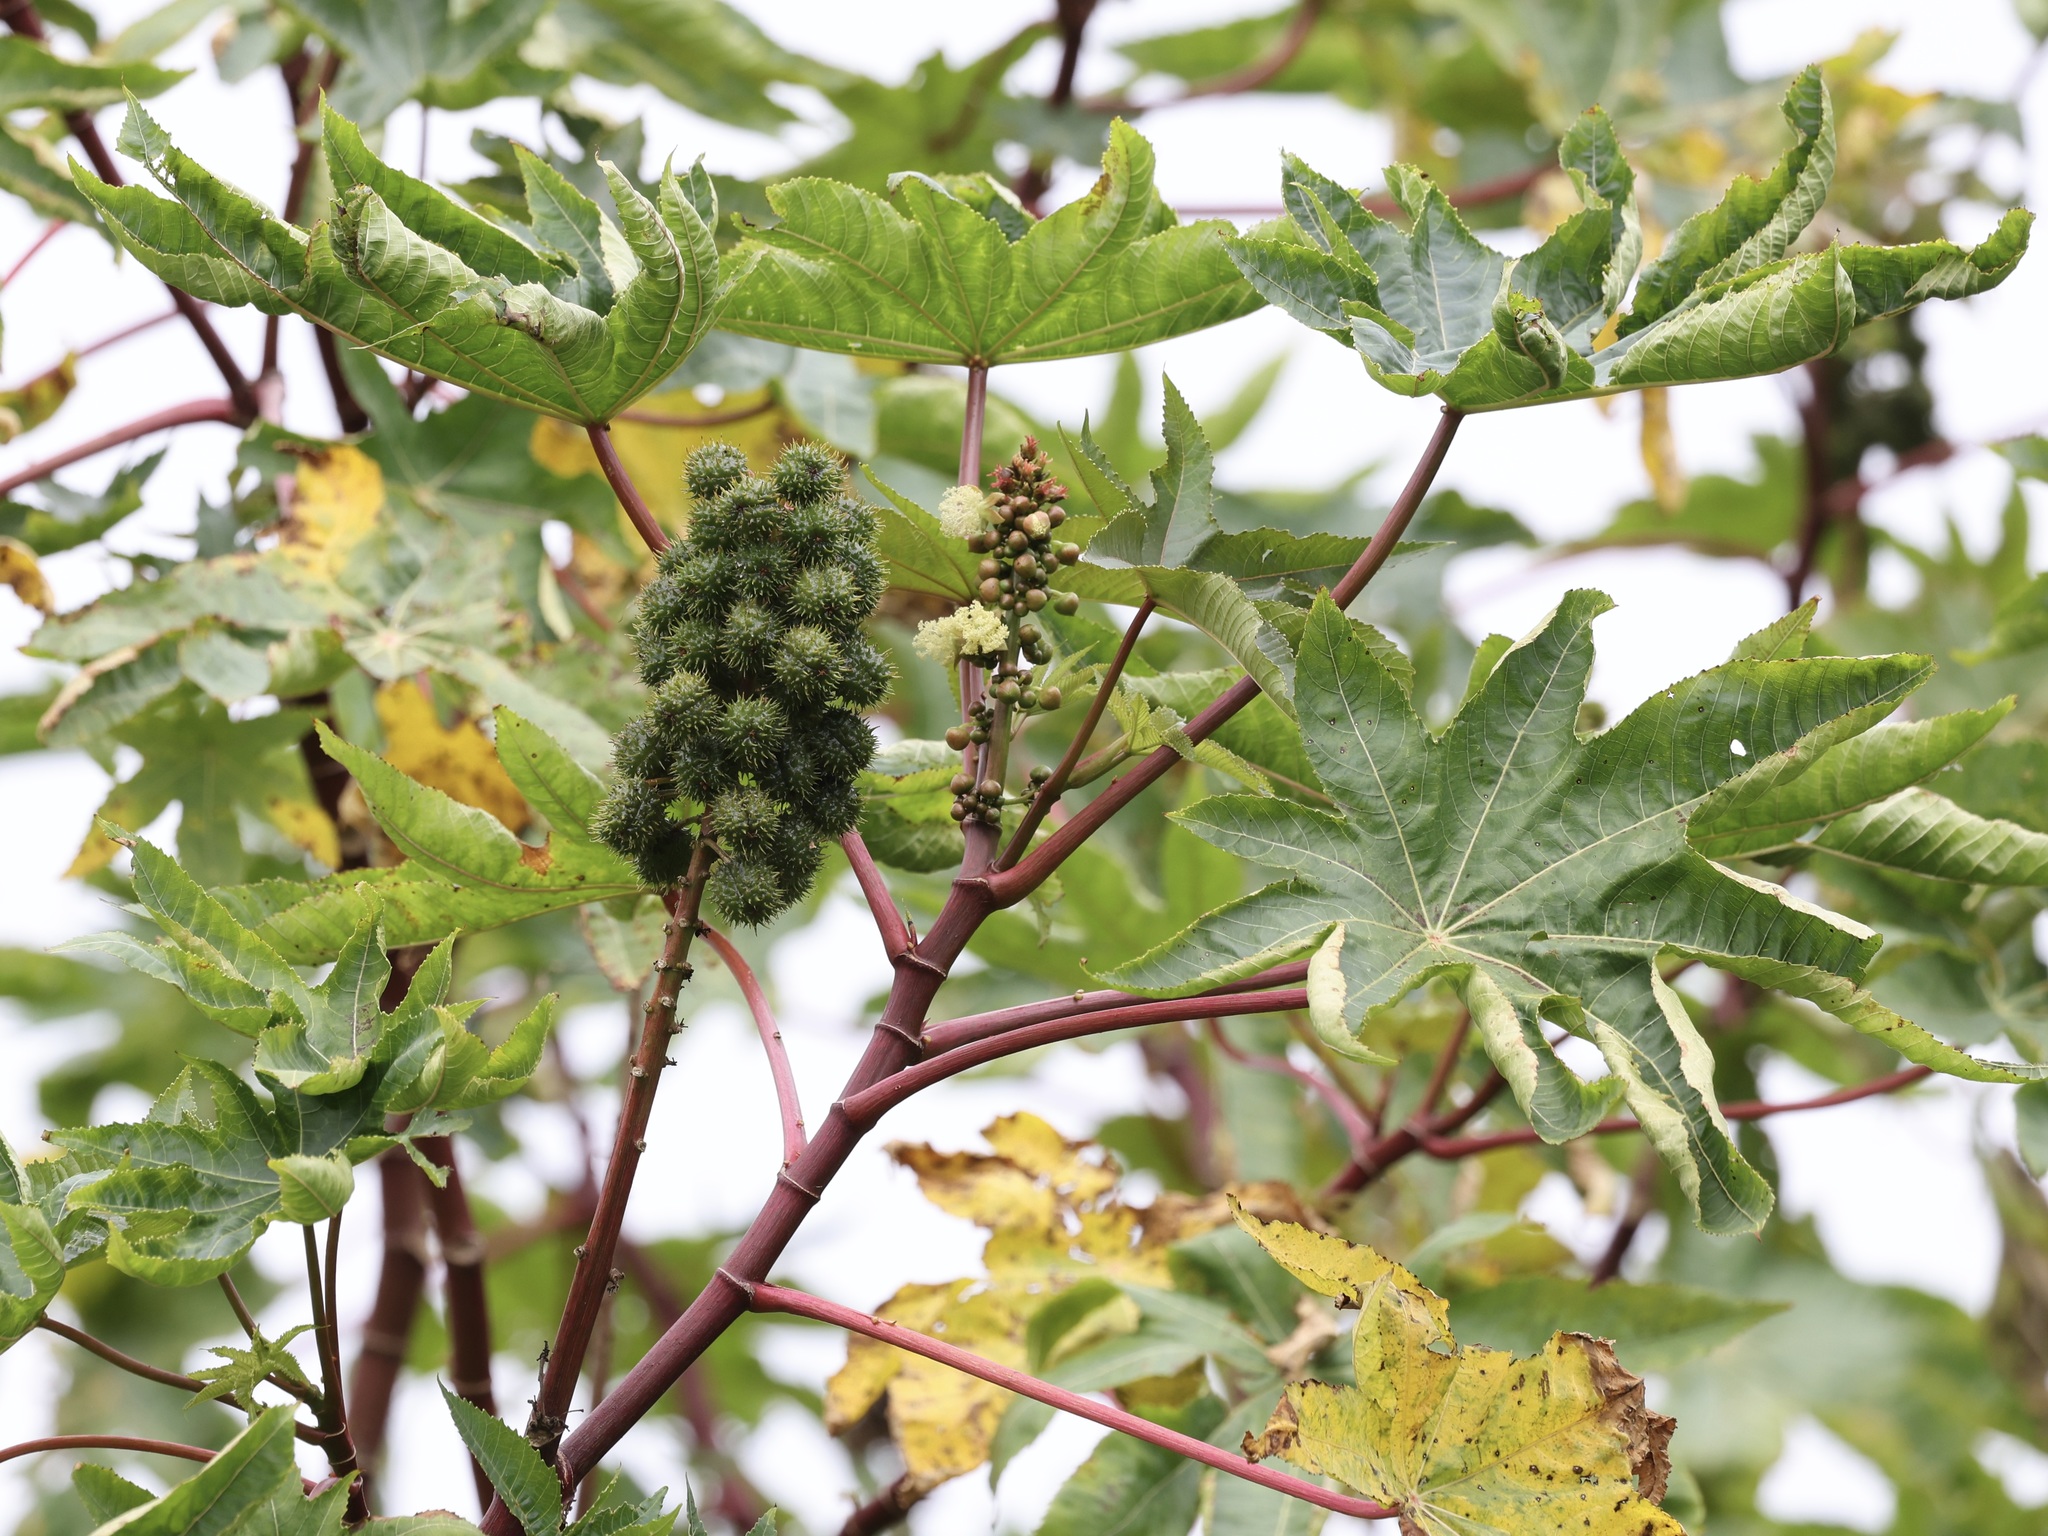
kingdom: Plantae
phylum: Tracheophyta
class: Magnoliopsida
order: Malpighiales
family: Euphorbiaceae
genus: Ricinus
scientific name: Ricinus communis
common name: Castor-oil-plant
